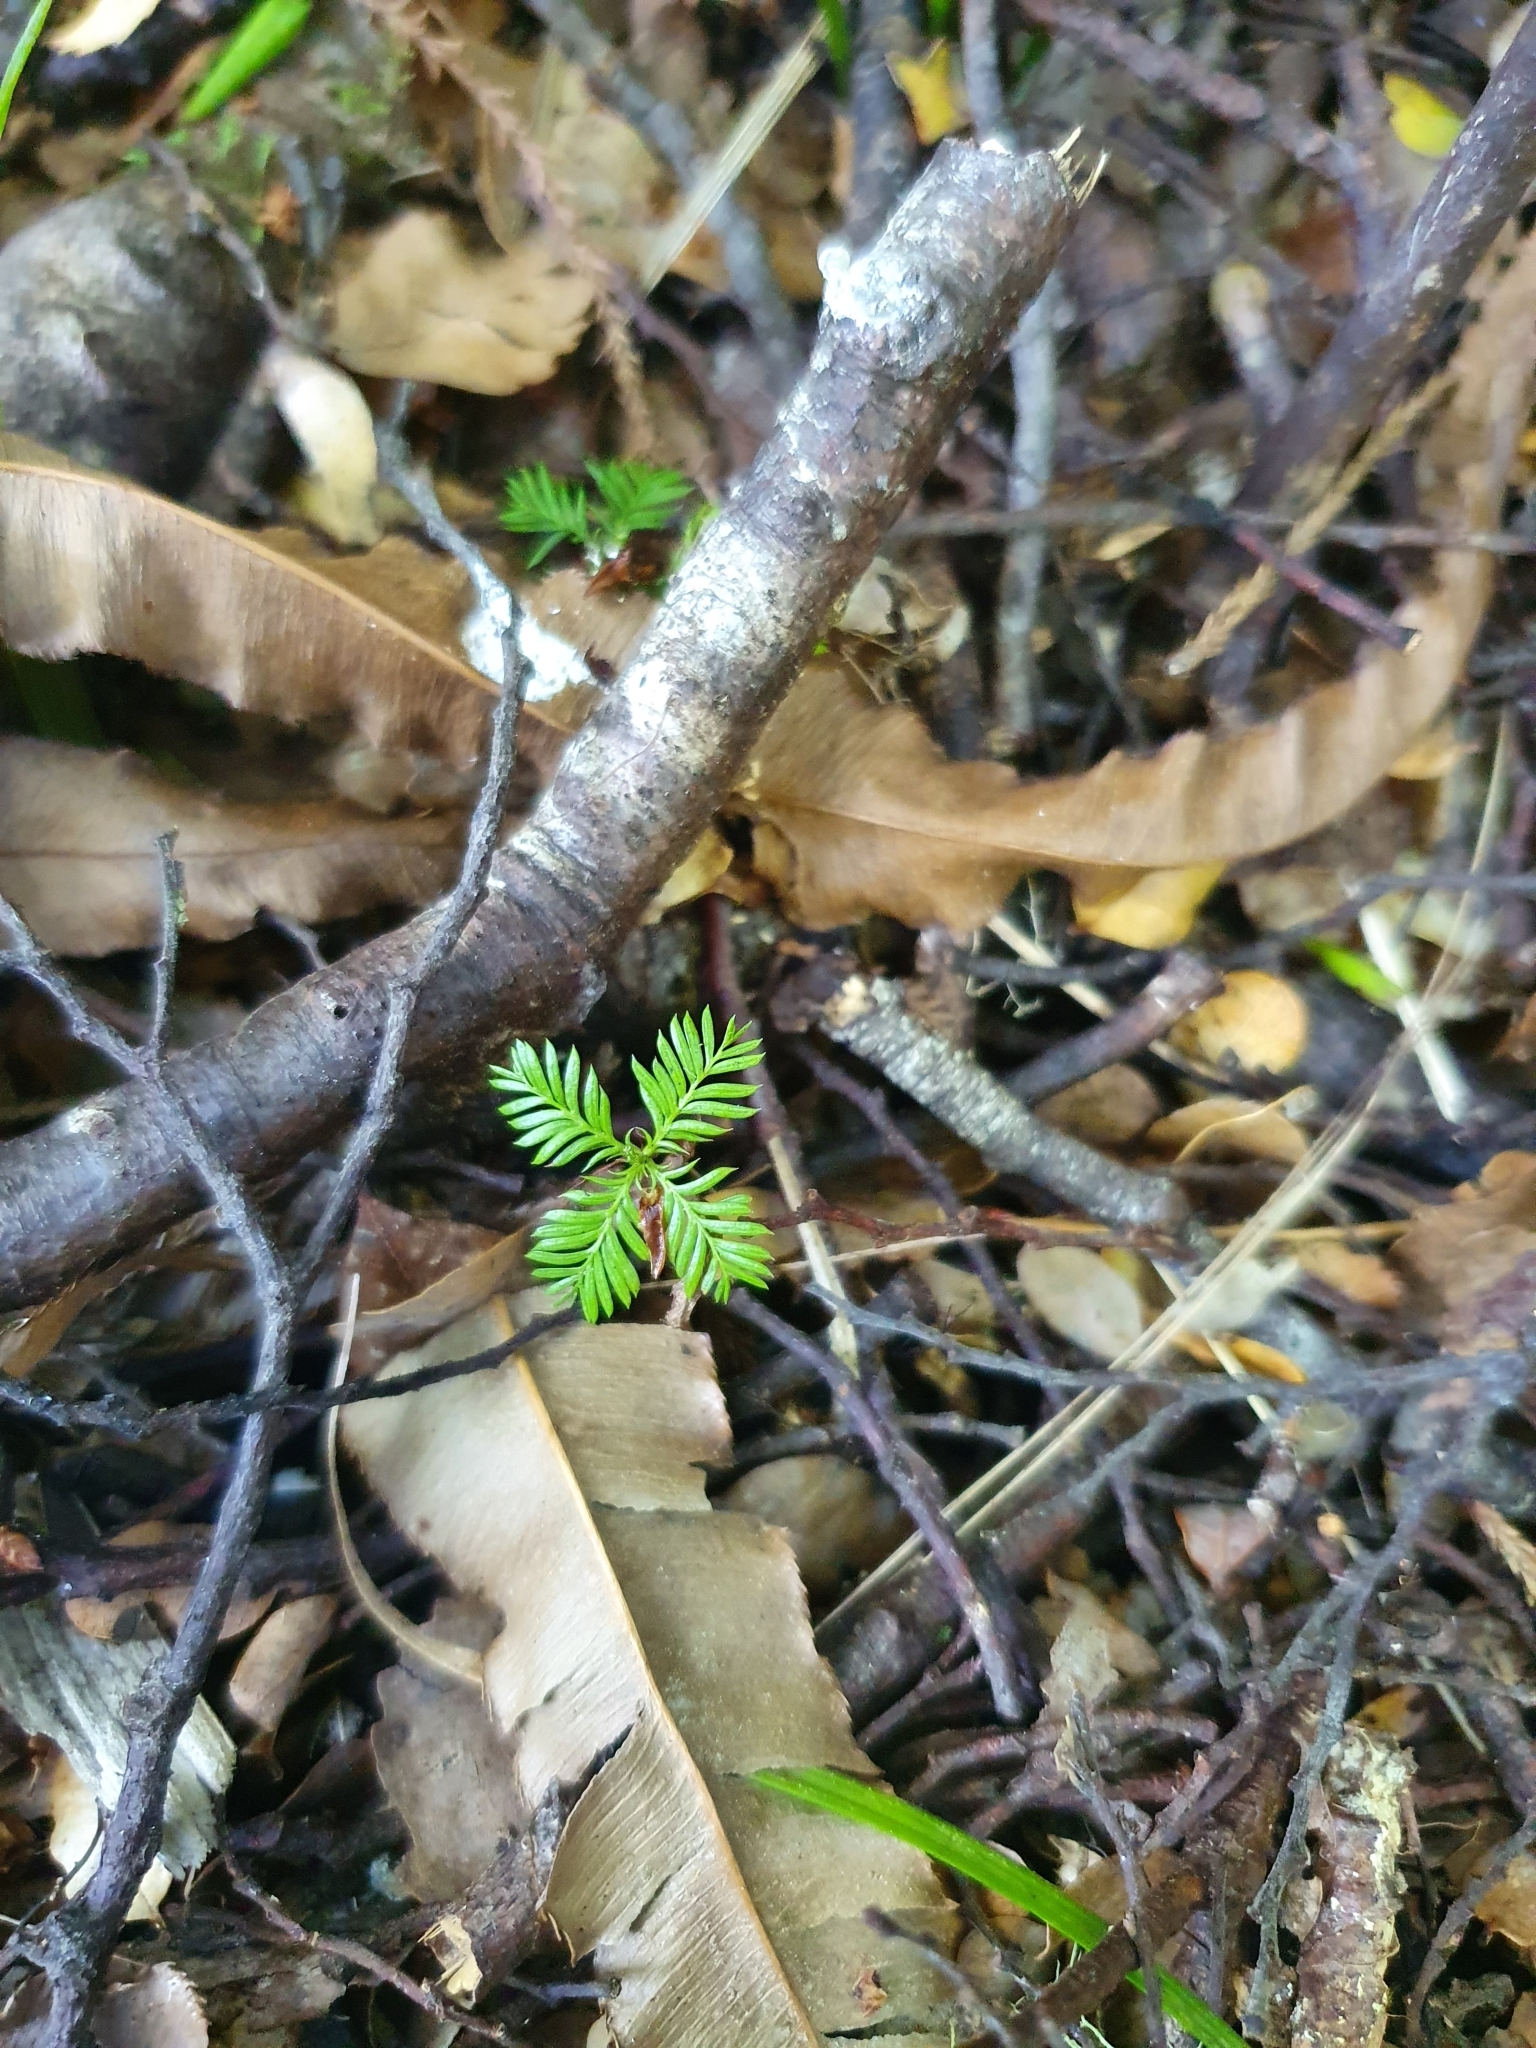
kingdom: Plantae
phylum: Tracheophyta
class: Pinopsida
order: Pinales
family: Podocarpaceae
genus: Dacrycarpus
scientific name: Dacrycarpus dacrydioides
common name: White pine
